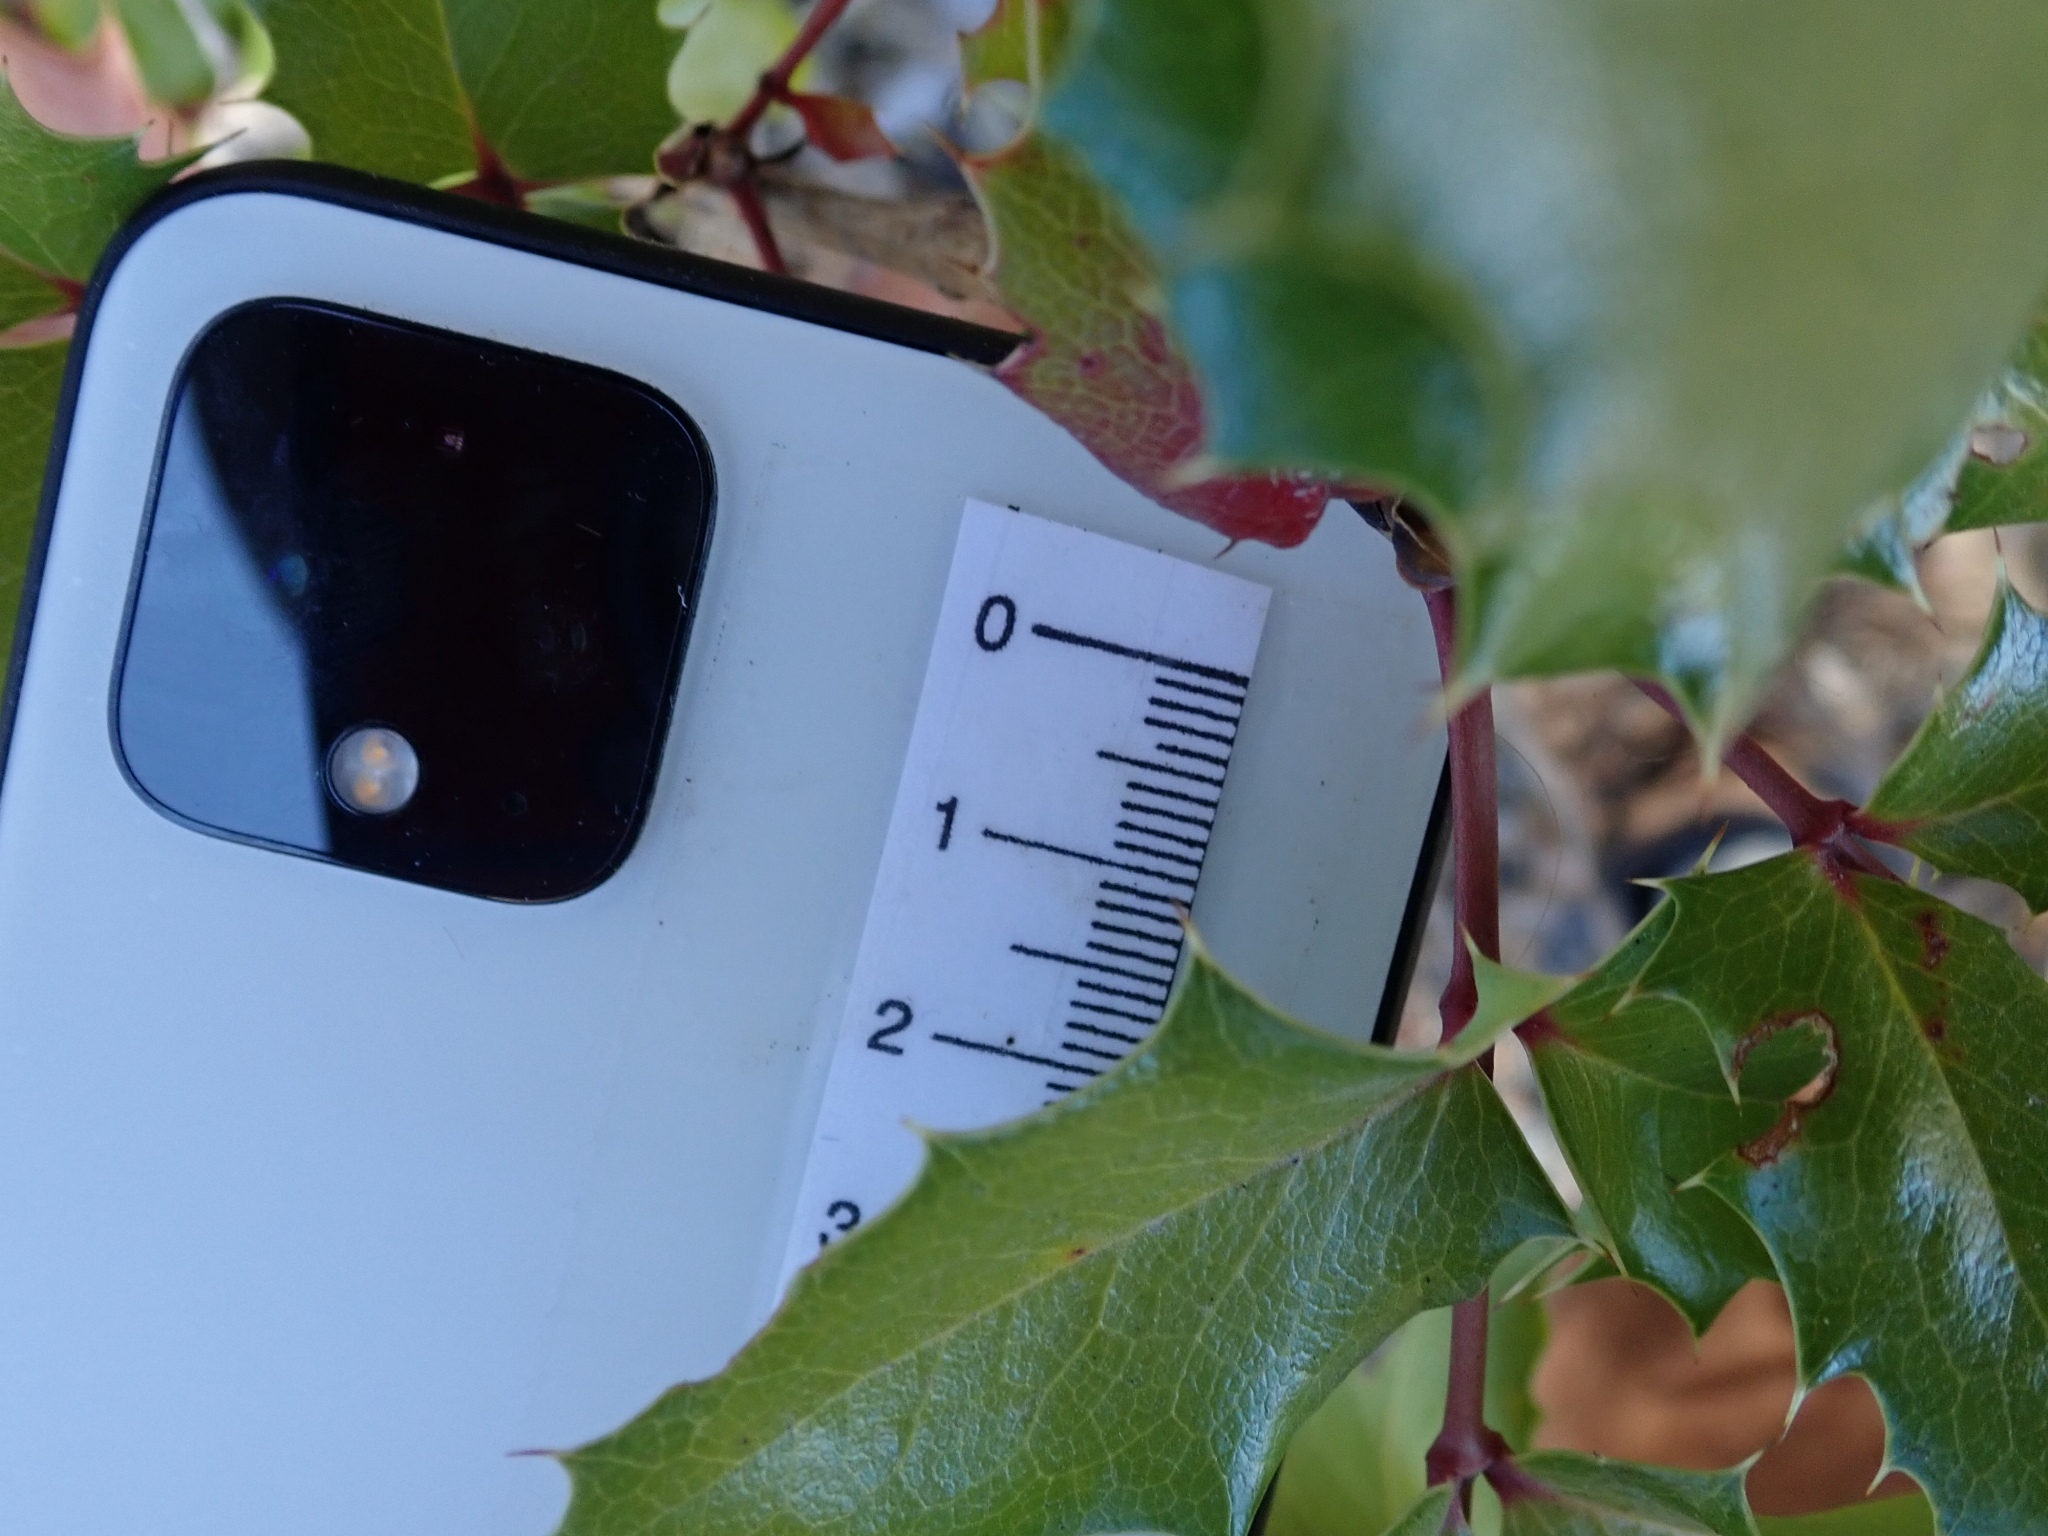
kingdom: Plantae
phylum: Tracheophyta
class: Magnoliopsida
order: Ranunculales
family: Berberidaceae
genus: Mahonia
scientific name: Mahonia
